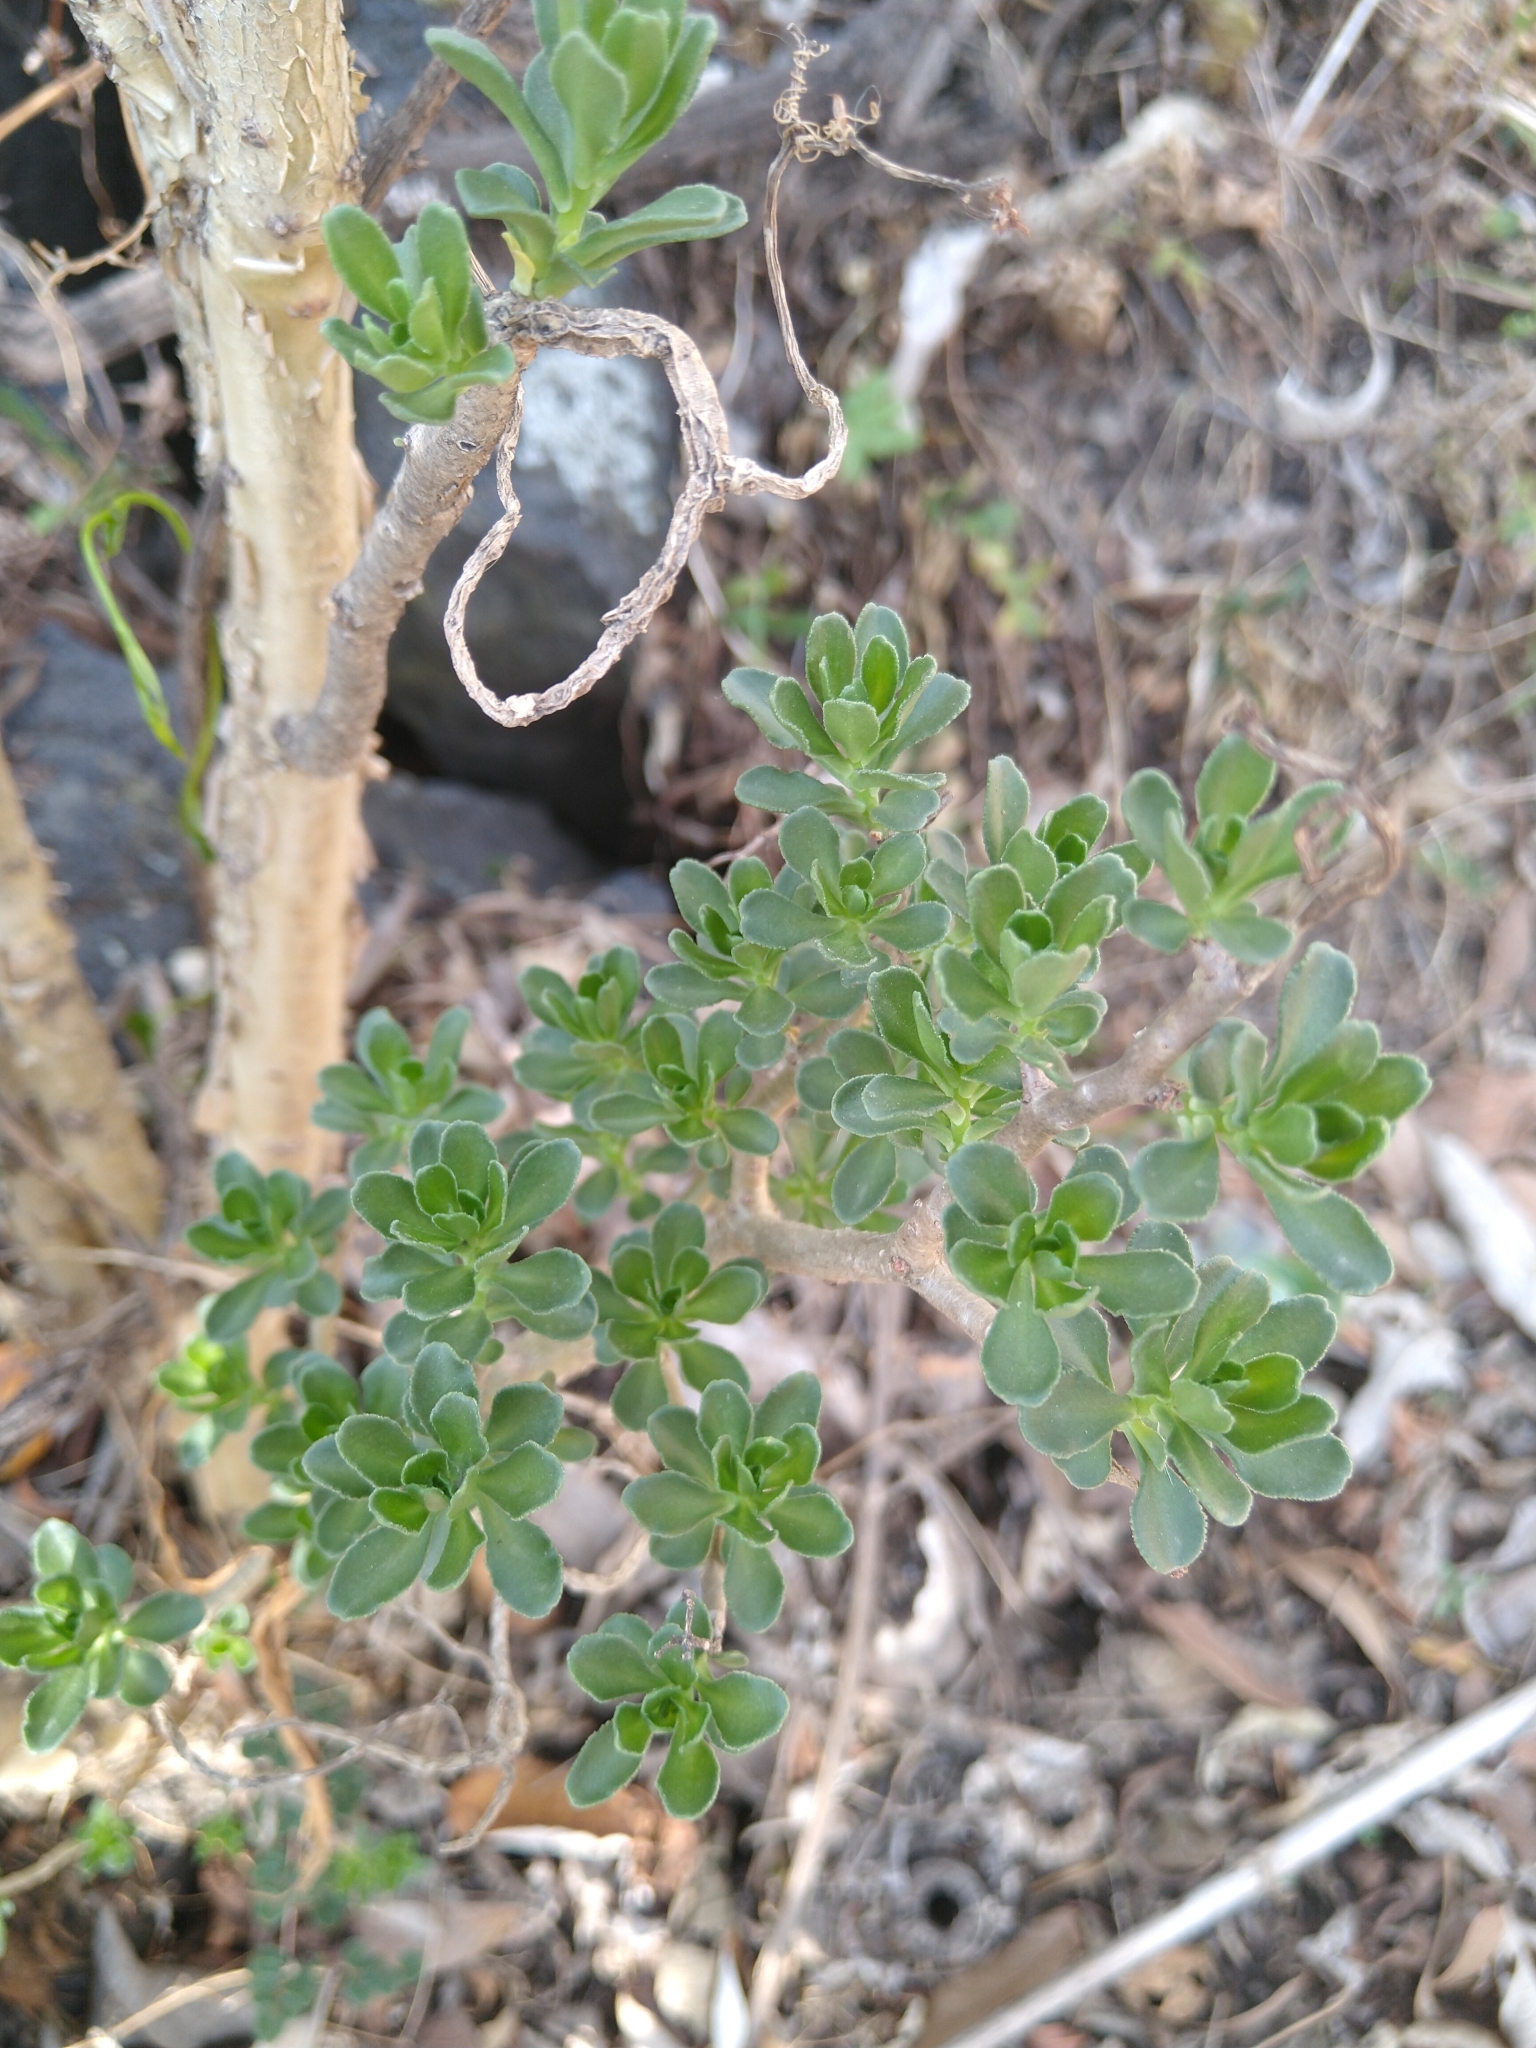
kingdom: Plantae
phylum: Tracheophyta
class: Magnoliopsida
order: Saxifragales
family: Crassulaceae
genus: Sedum
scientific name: Sedum oxypetalum
